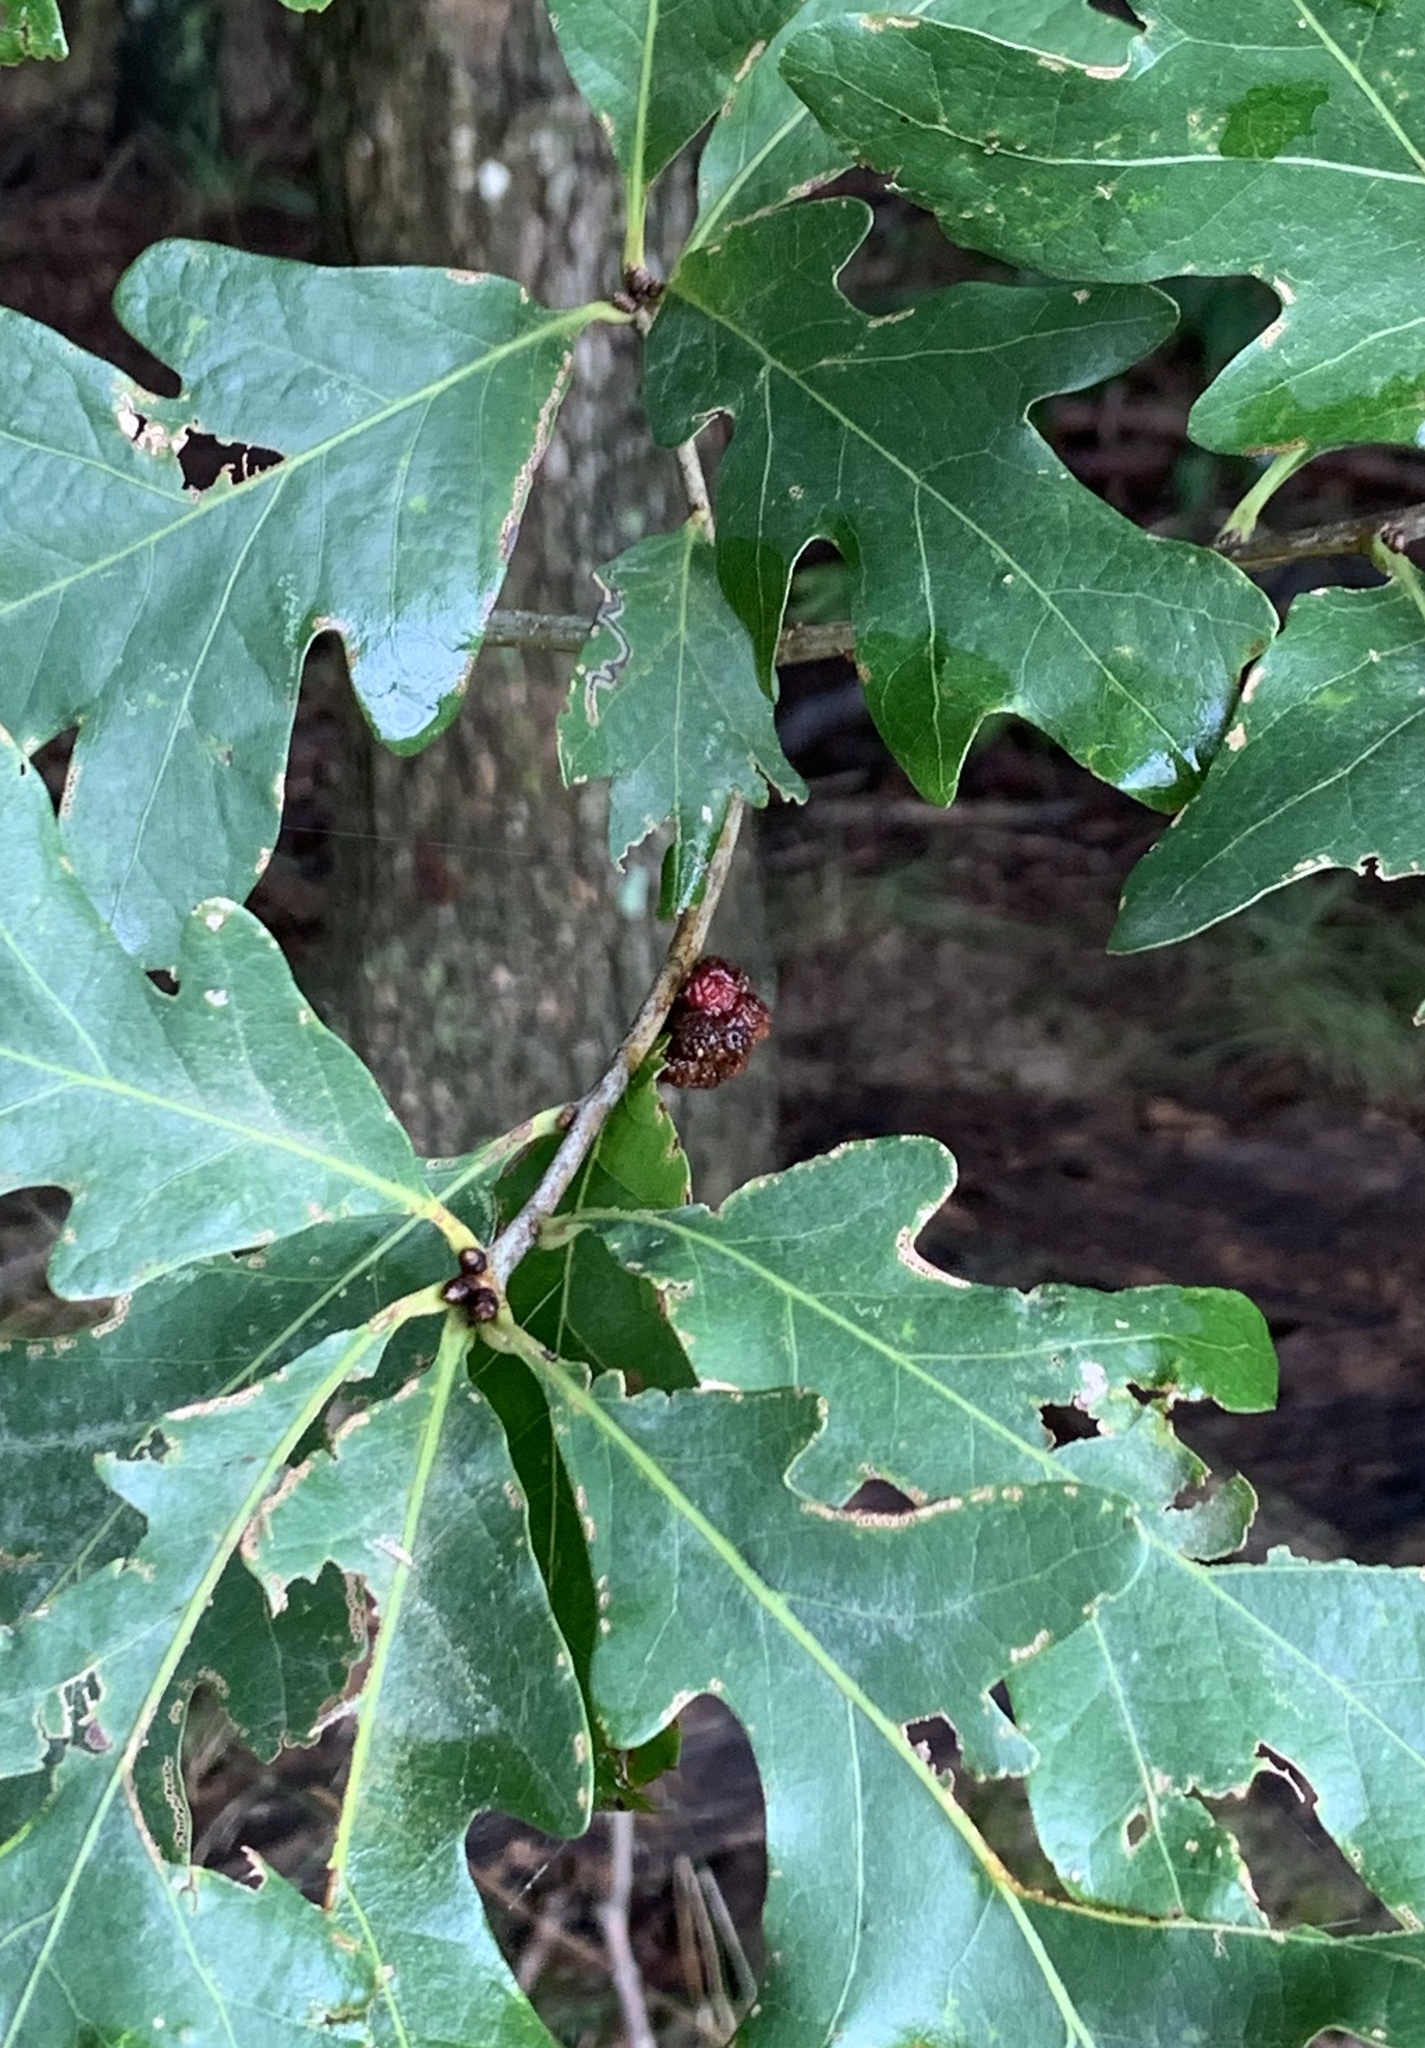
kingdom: Animalia
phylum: Arthropoda
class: Insecta
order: Hymenoptera
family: Cynipidae
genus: Andricus
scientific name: Andricus
